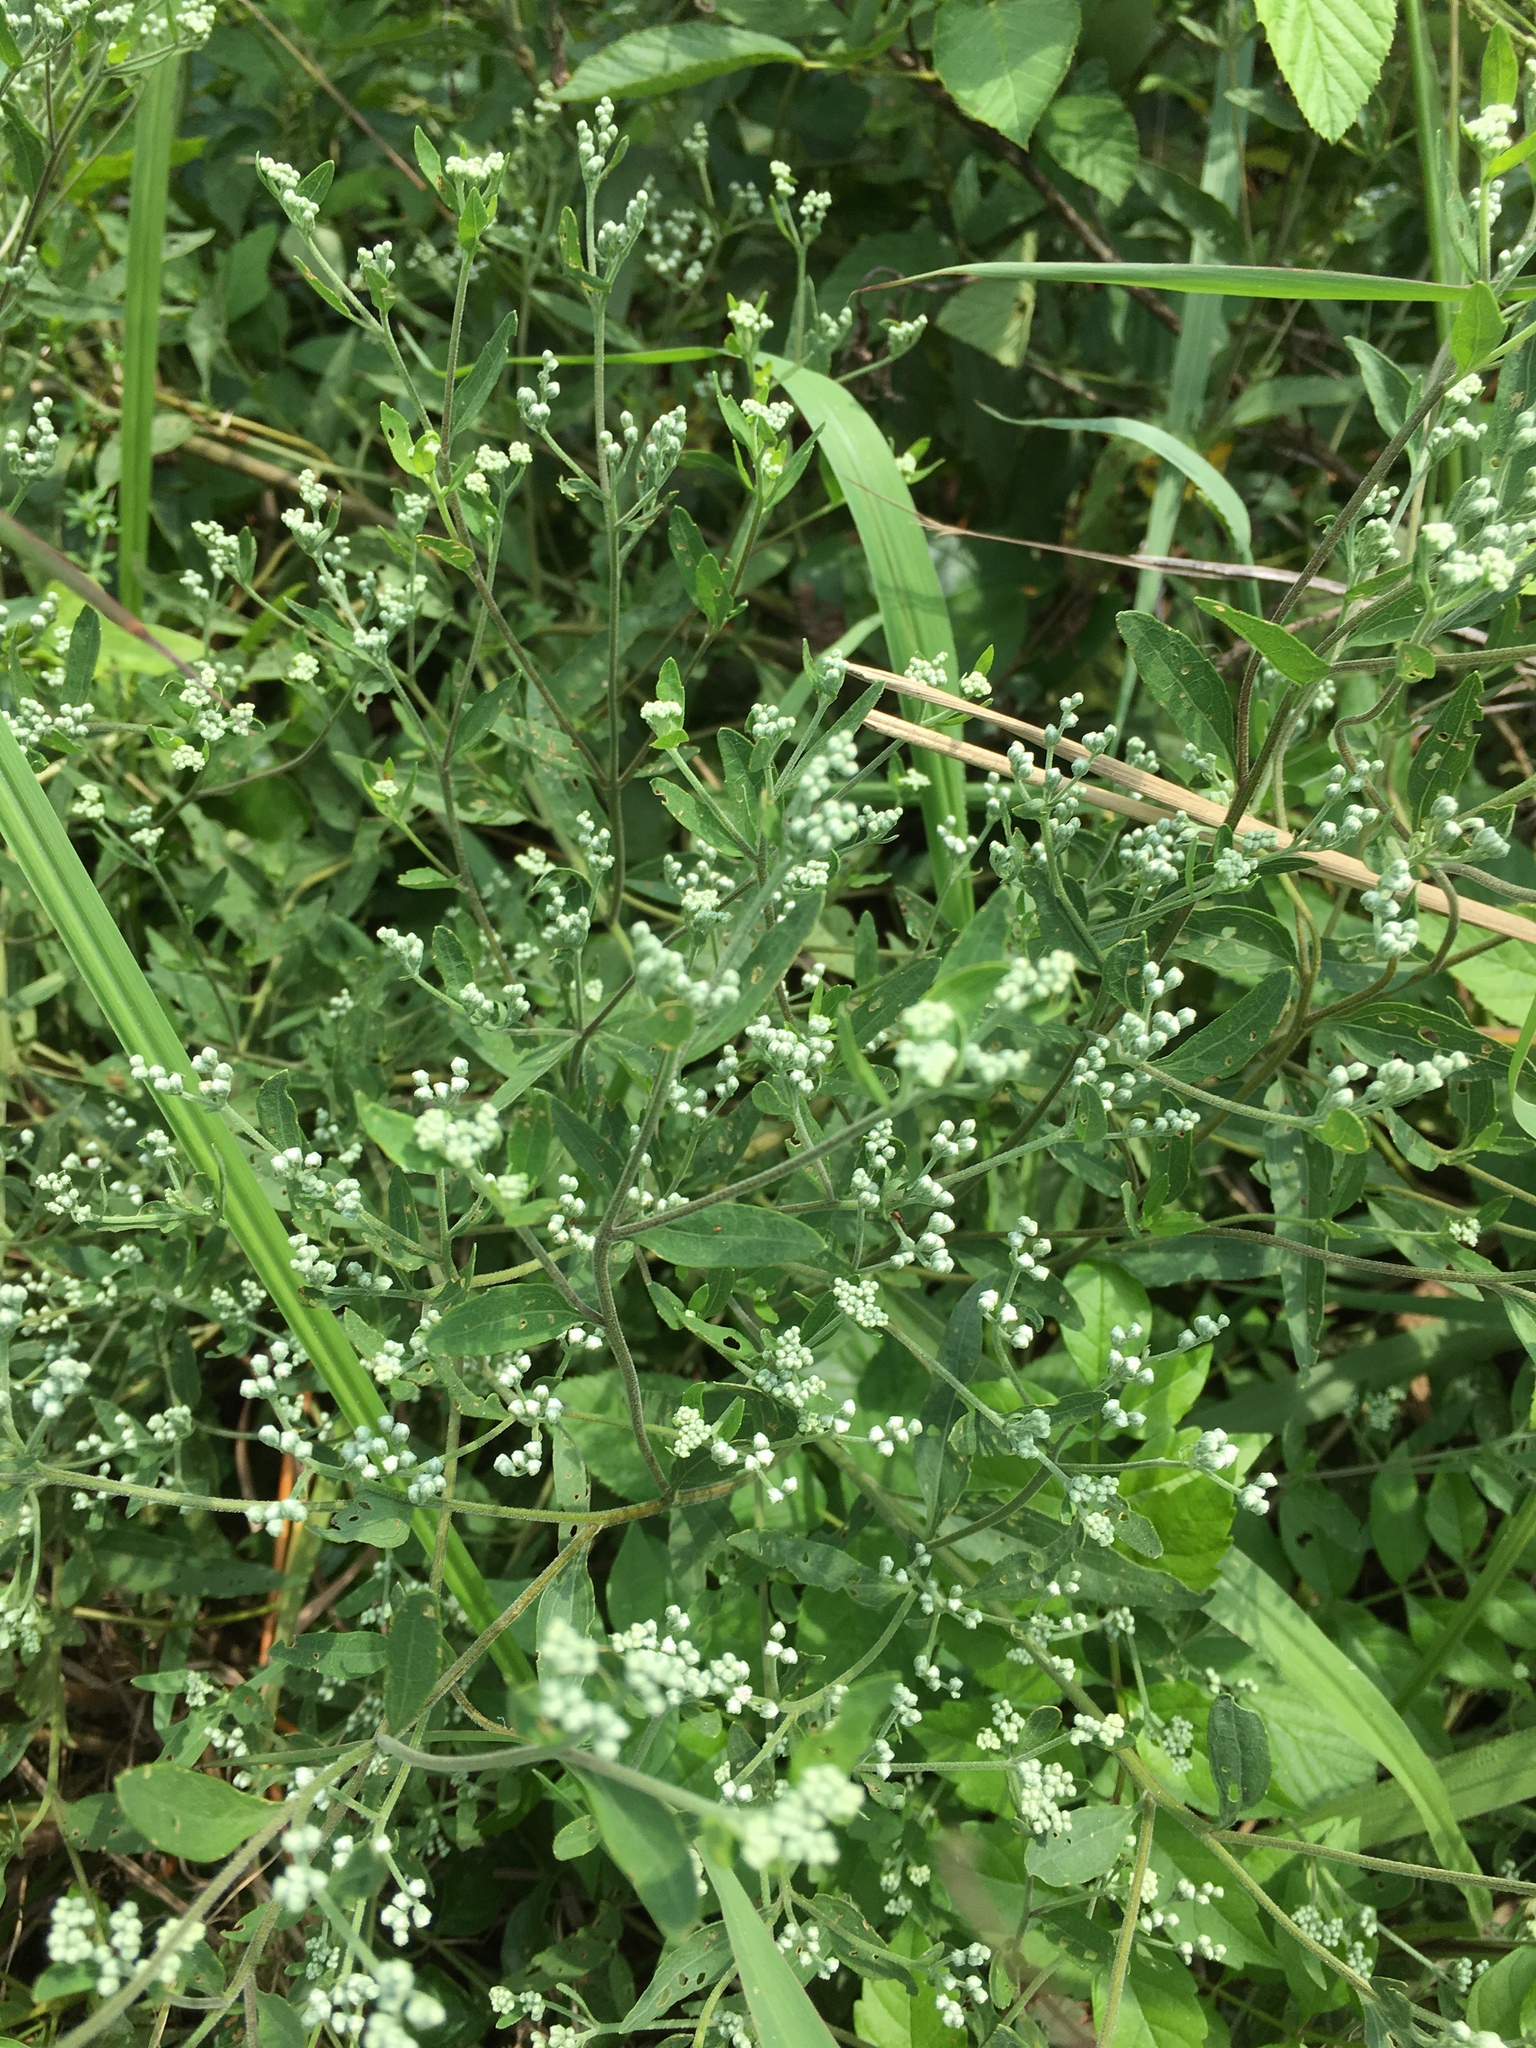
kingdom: Plantae
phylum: Tracheophyta
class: Magnoliopsida
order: Asterales
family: Asteraceae
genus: Eupatorium
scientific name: Eupatorium serotinum
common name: Late boneset
